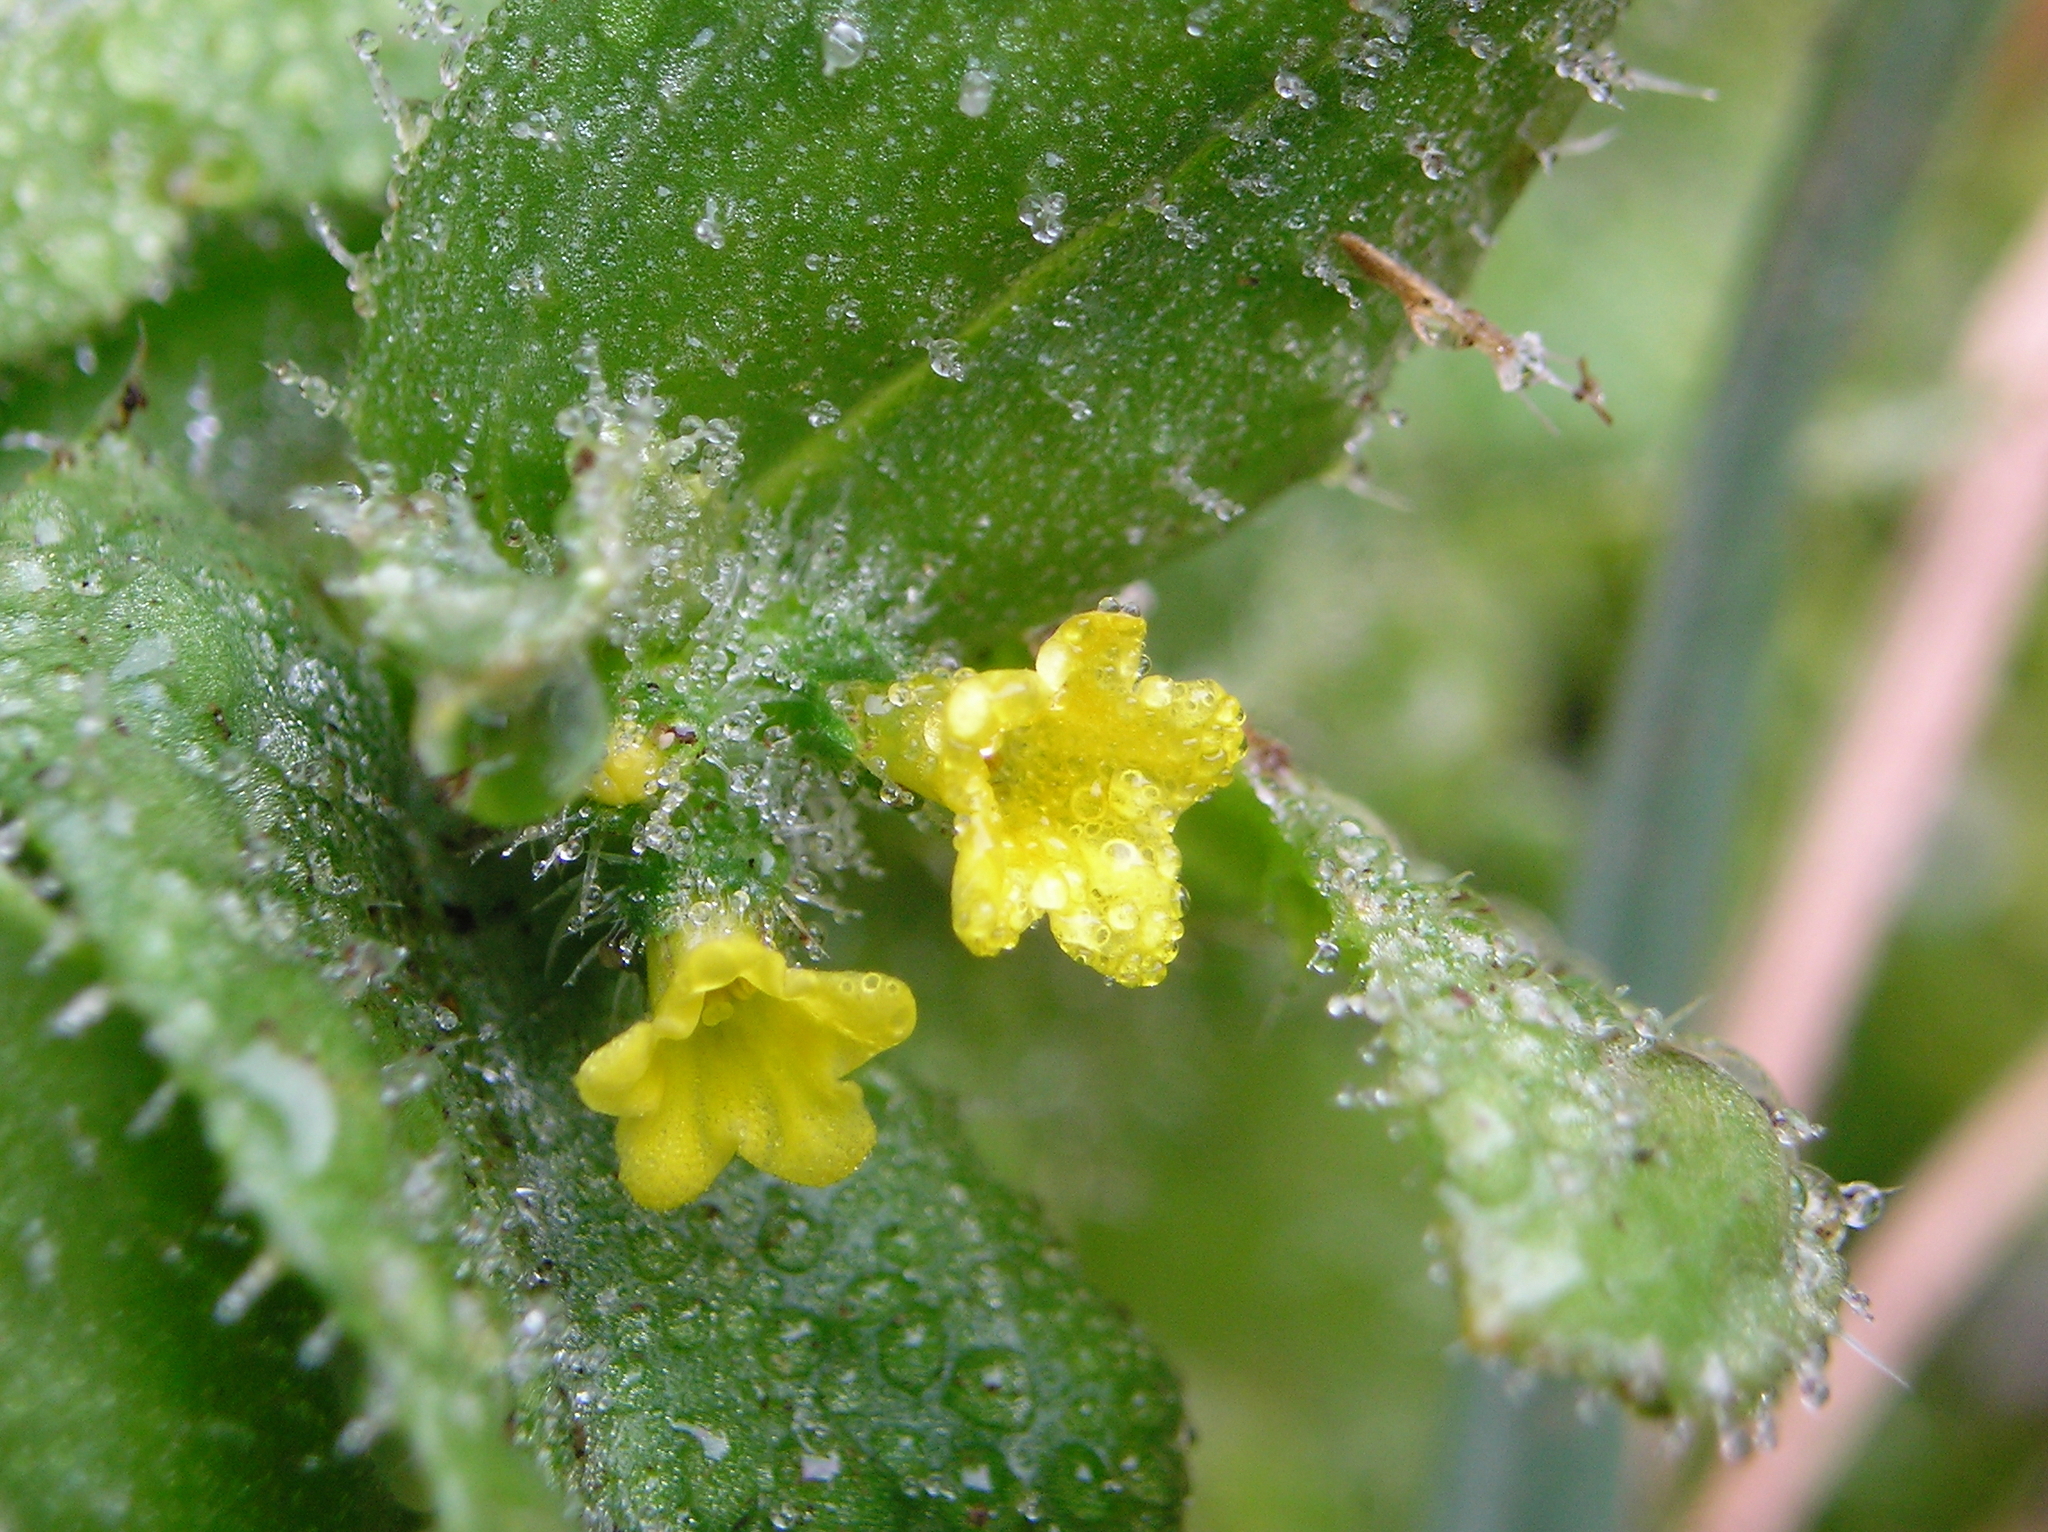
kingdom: Plantae
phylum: Tracheophyta
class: Magnoliopsida
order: Boraginales
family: Boraginaceae
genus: Amsinckia
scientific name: Amsinckia spectabilis
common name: Seaside fiddleneck
